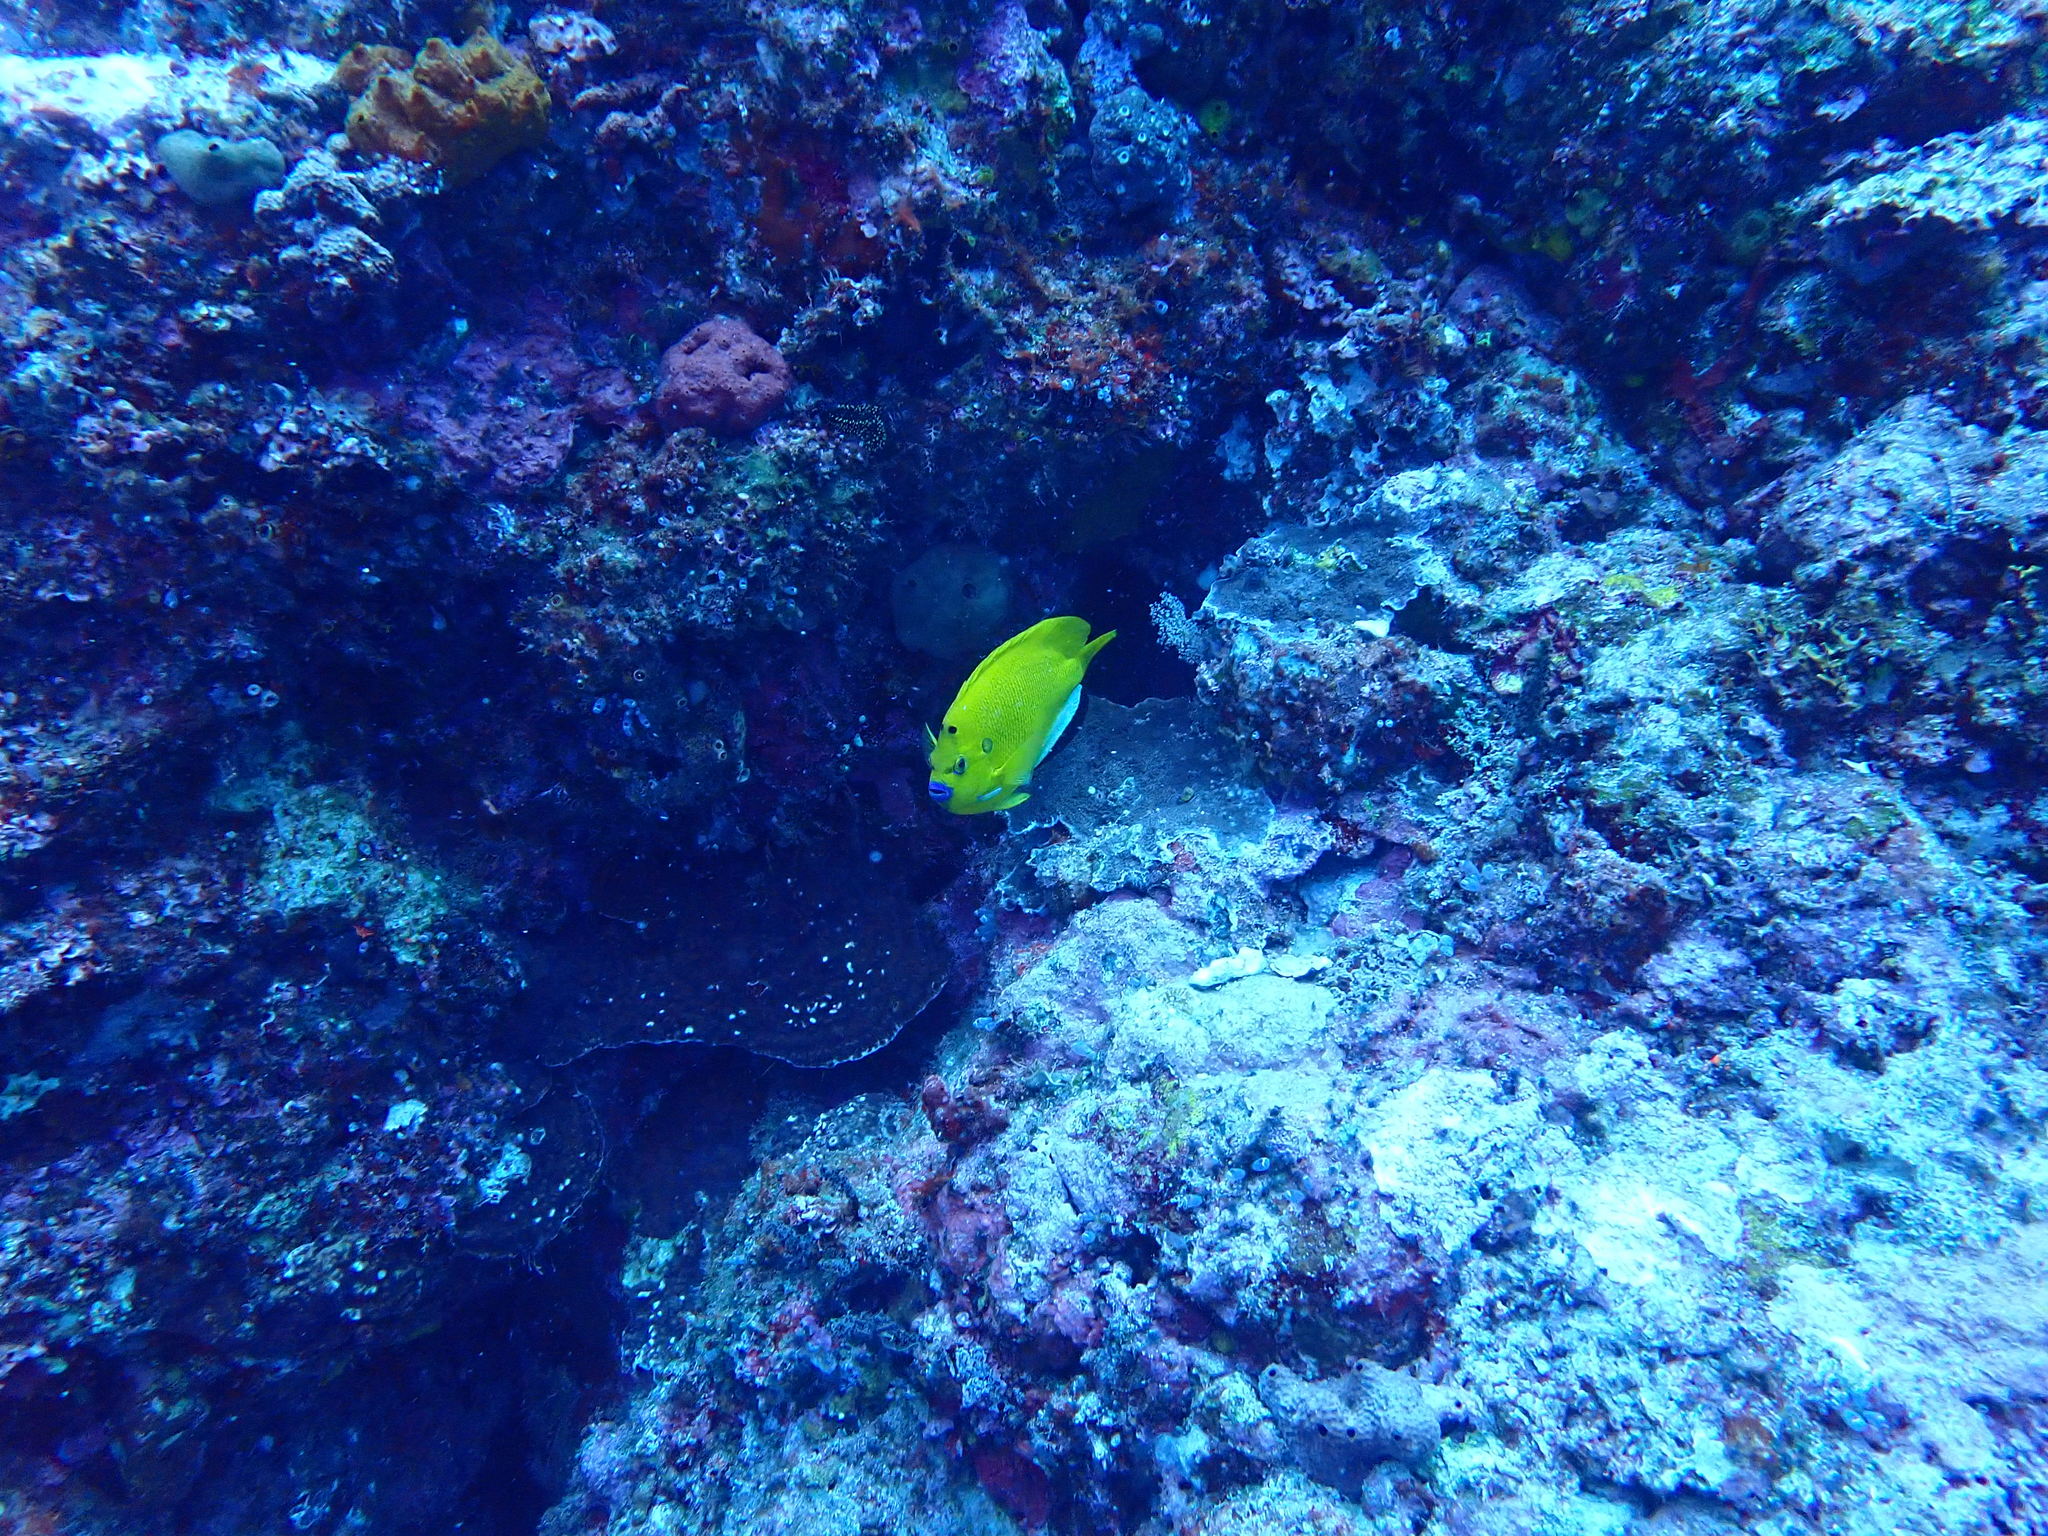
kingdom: Animalia
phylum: Chordata
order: Perciformes
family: Pomacanthidae
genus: Apolemichthys
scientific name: Apolemichthys trimaculatus
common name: Threespot angelfish
